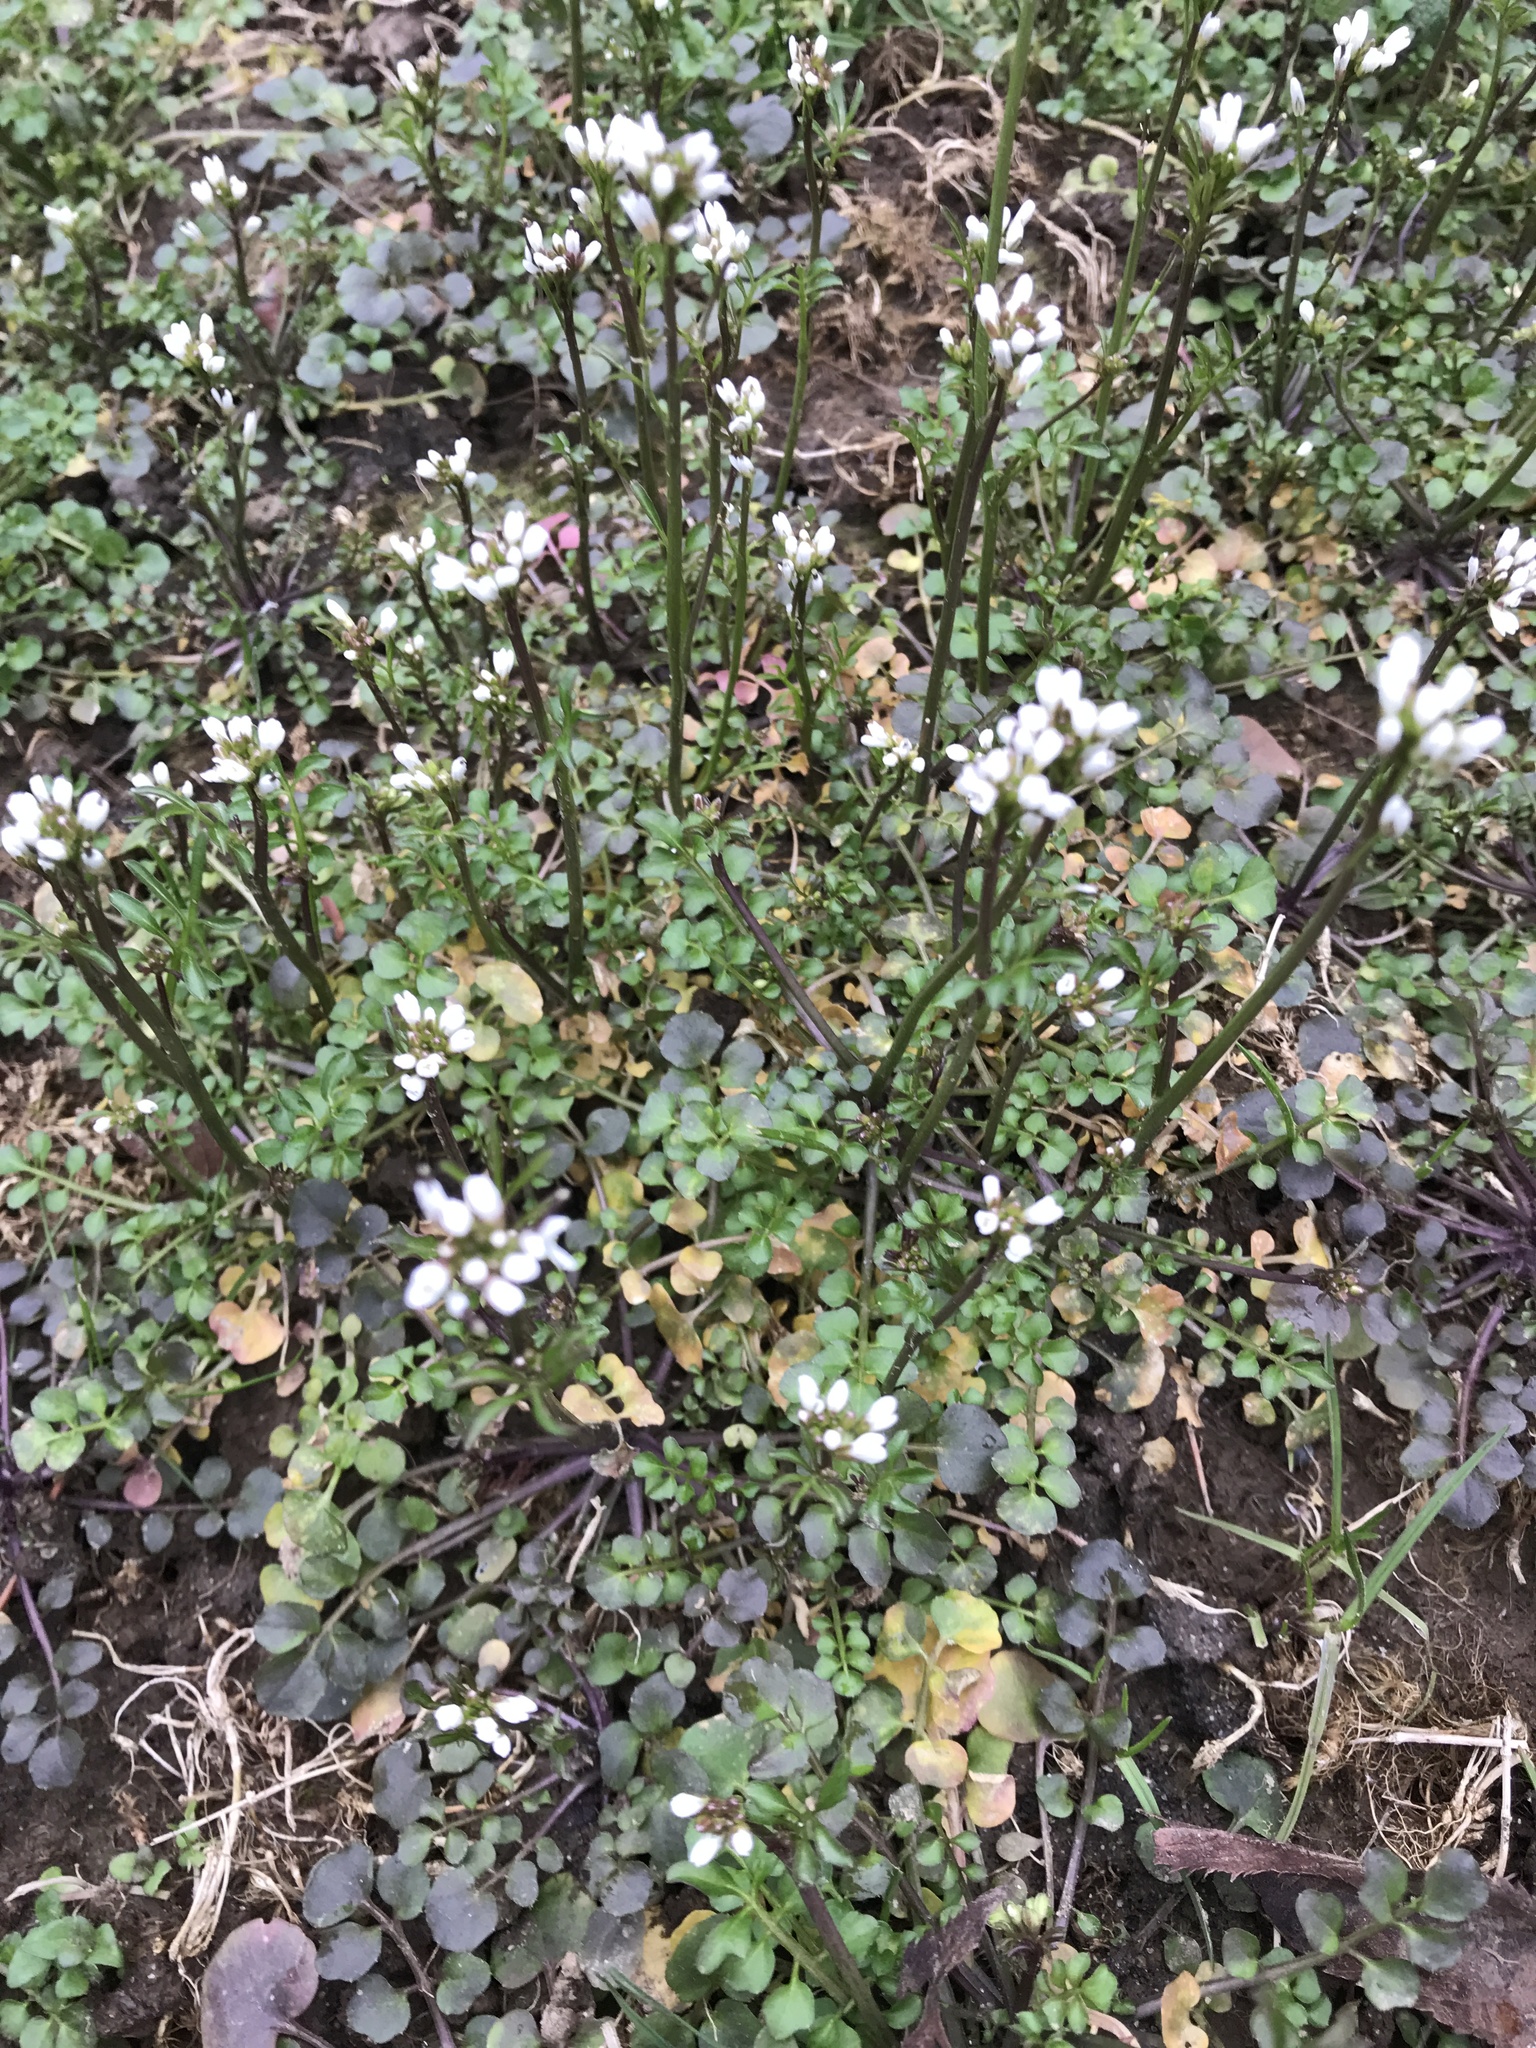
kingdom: Plantae
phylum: Tracheophyta
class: Magnoliopsida
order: Brassicales
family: Brassicaceae
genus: Cardamine
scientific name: Cardamine hirsuta
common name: Hairy bittercress
